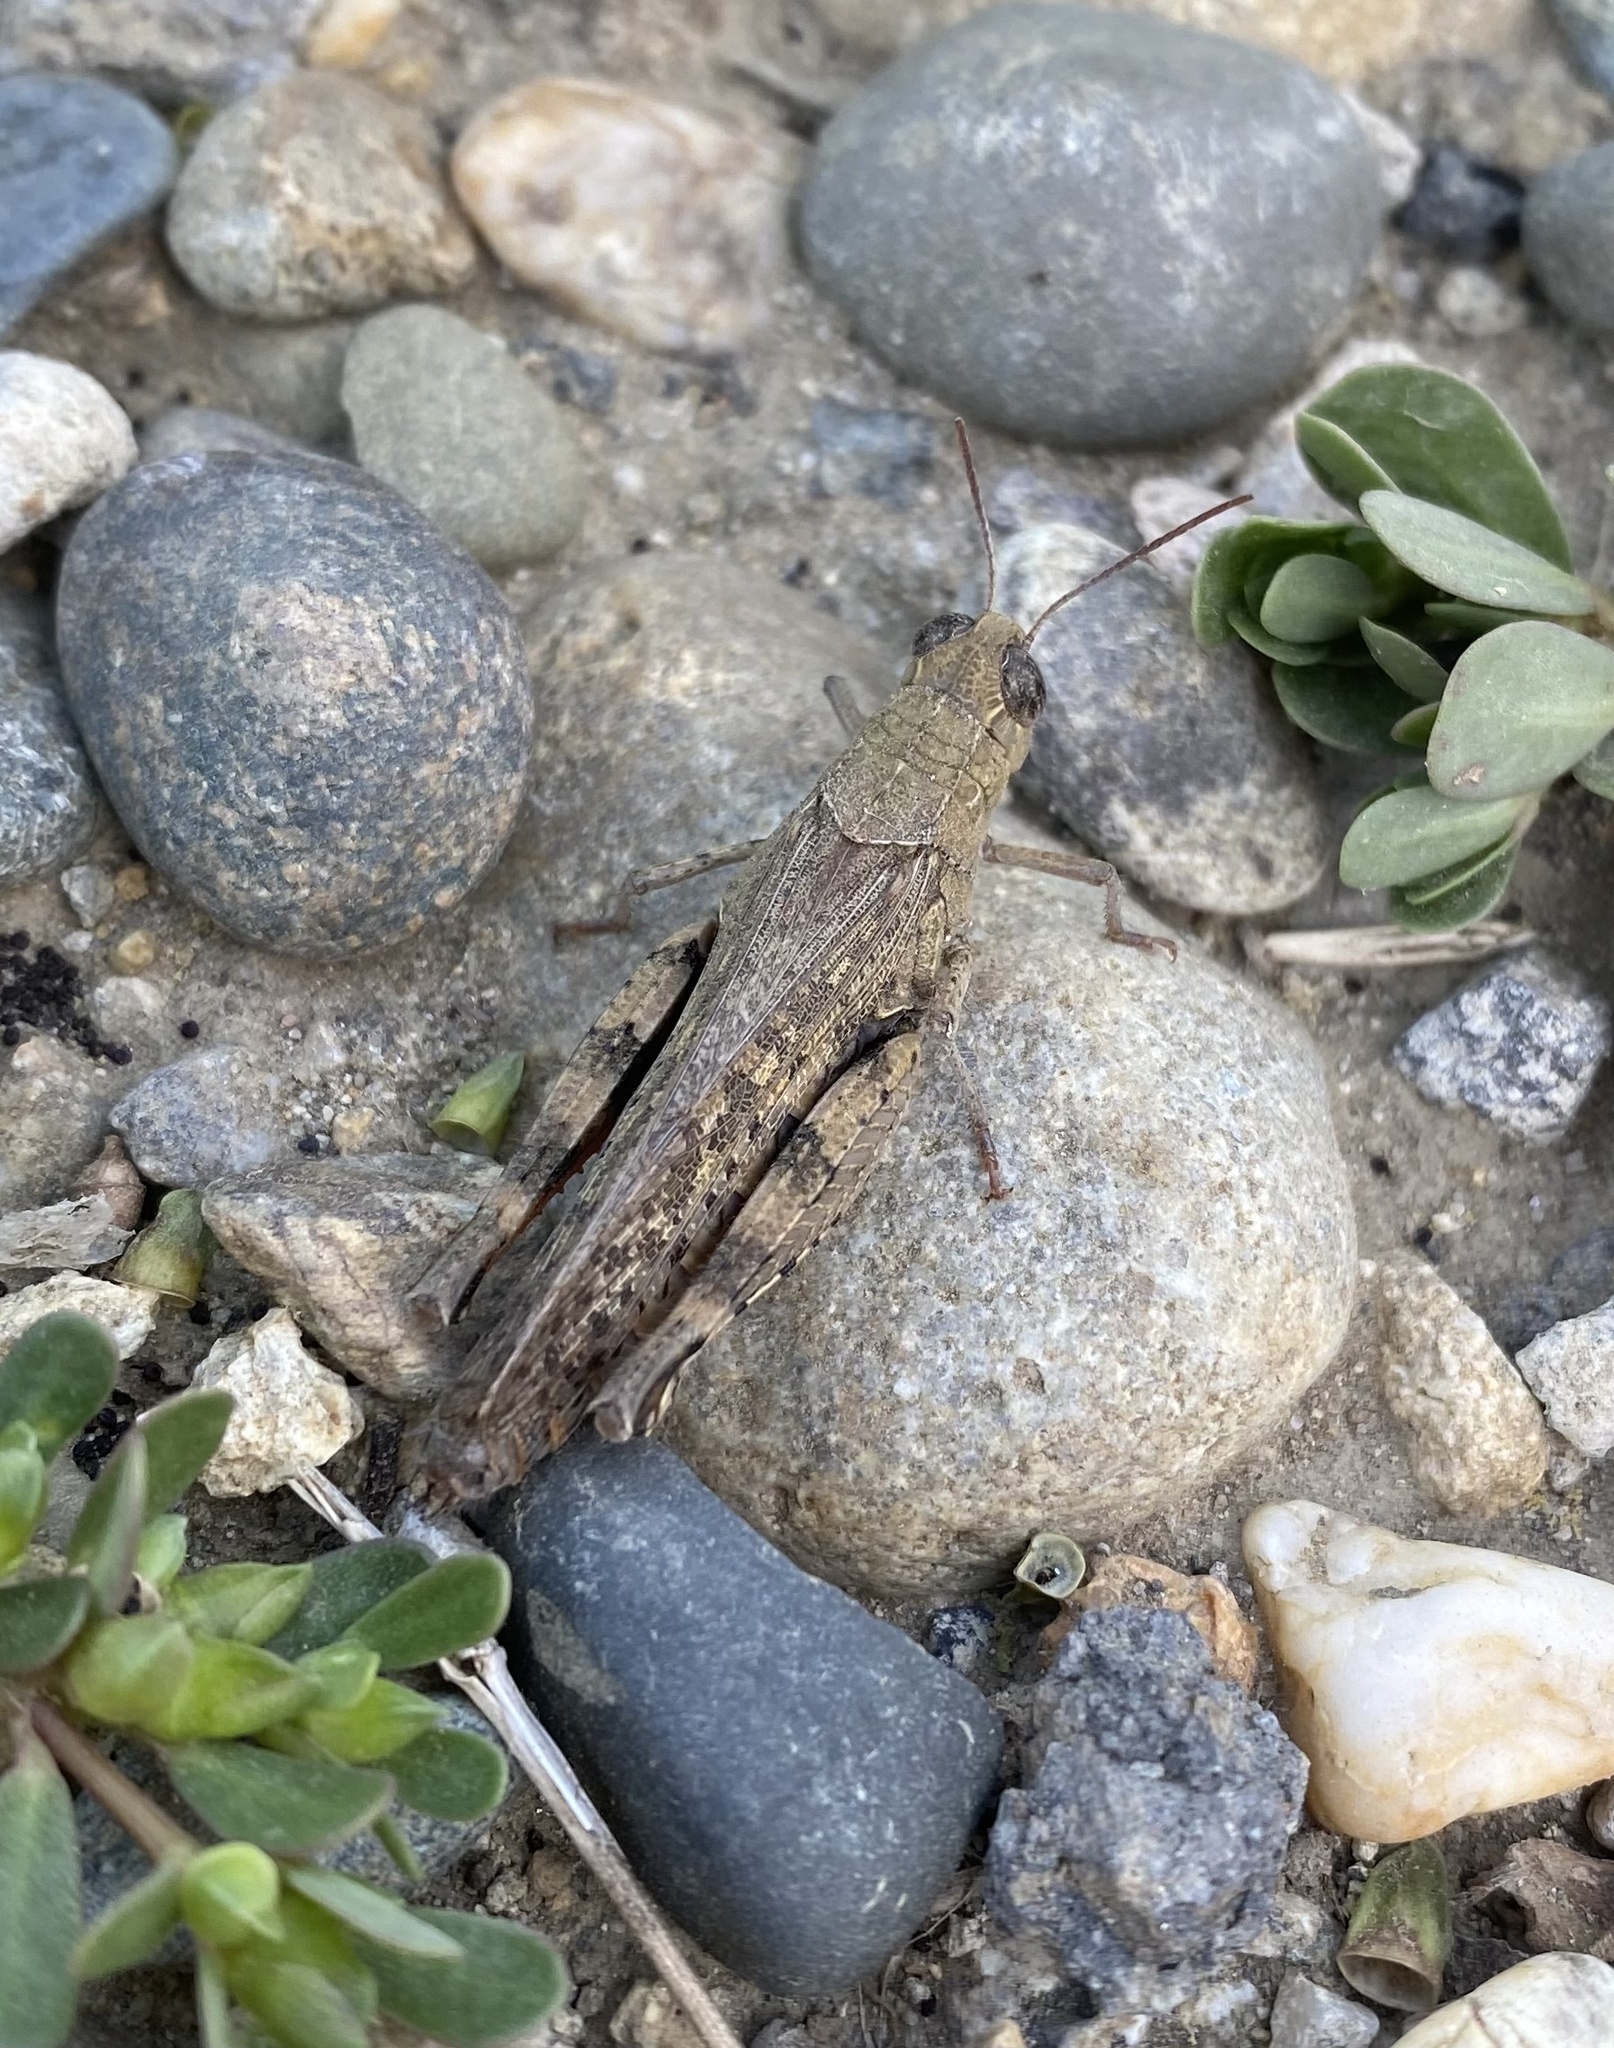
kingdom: Animalia
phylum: Arthropoda
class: Insecta
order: Orthoptera
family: Acrididae
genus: Calliptamus
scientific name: Calliptamus
